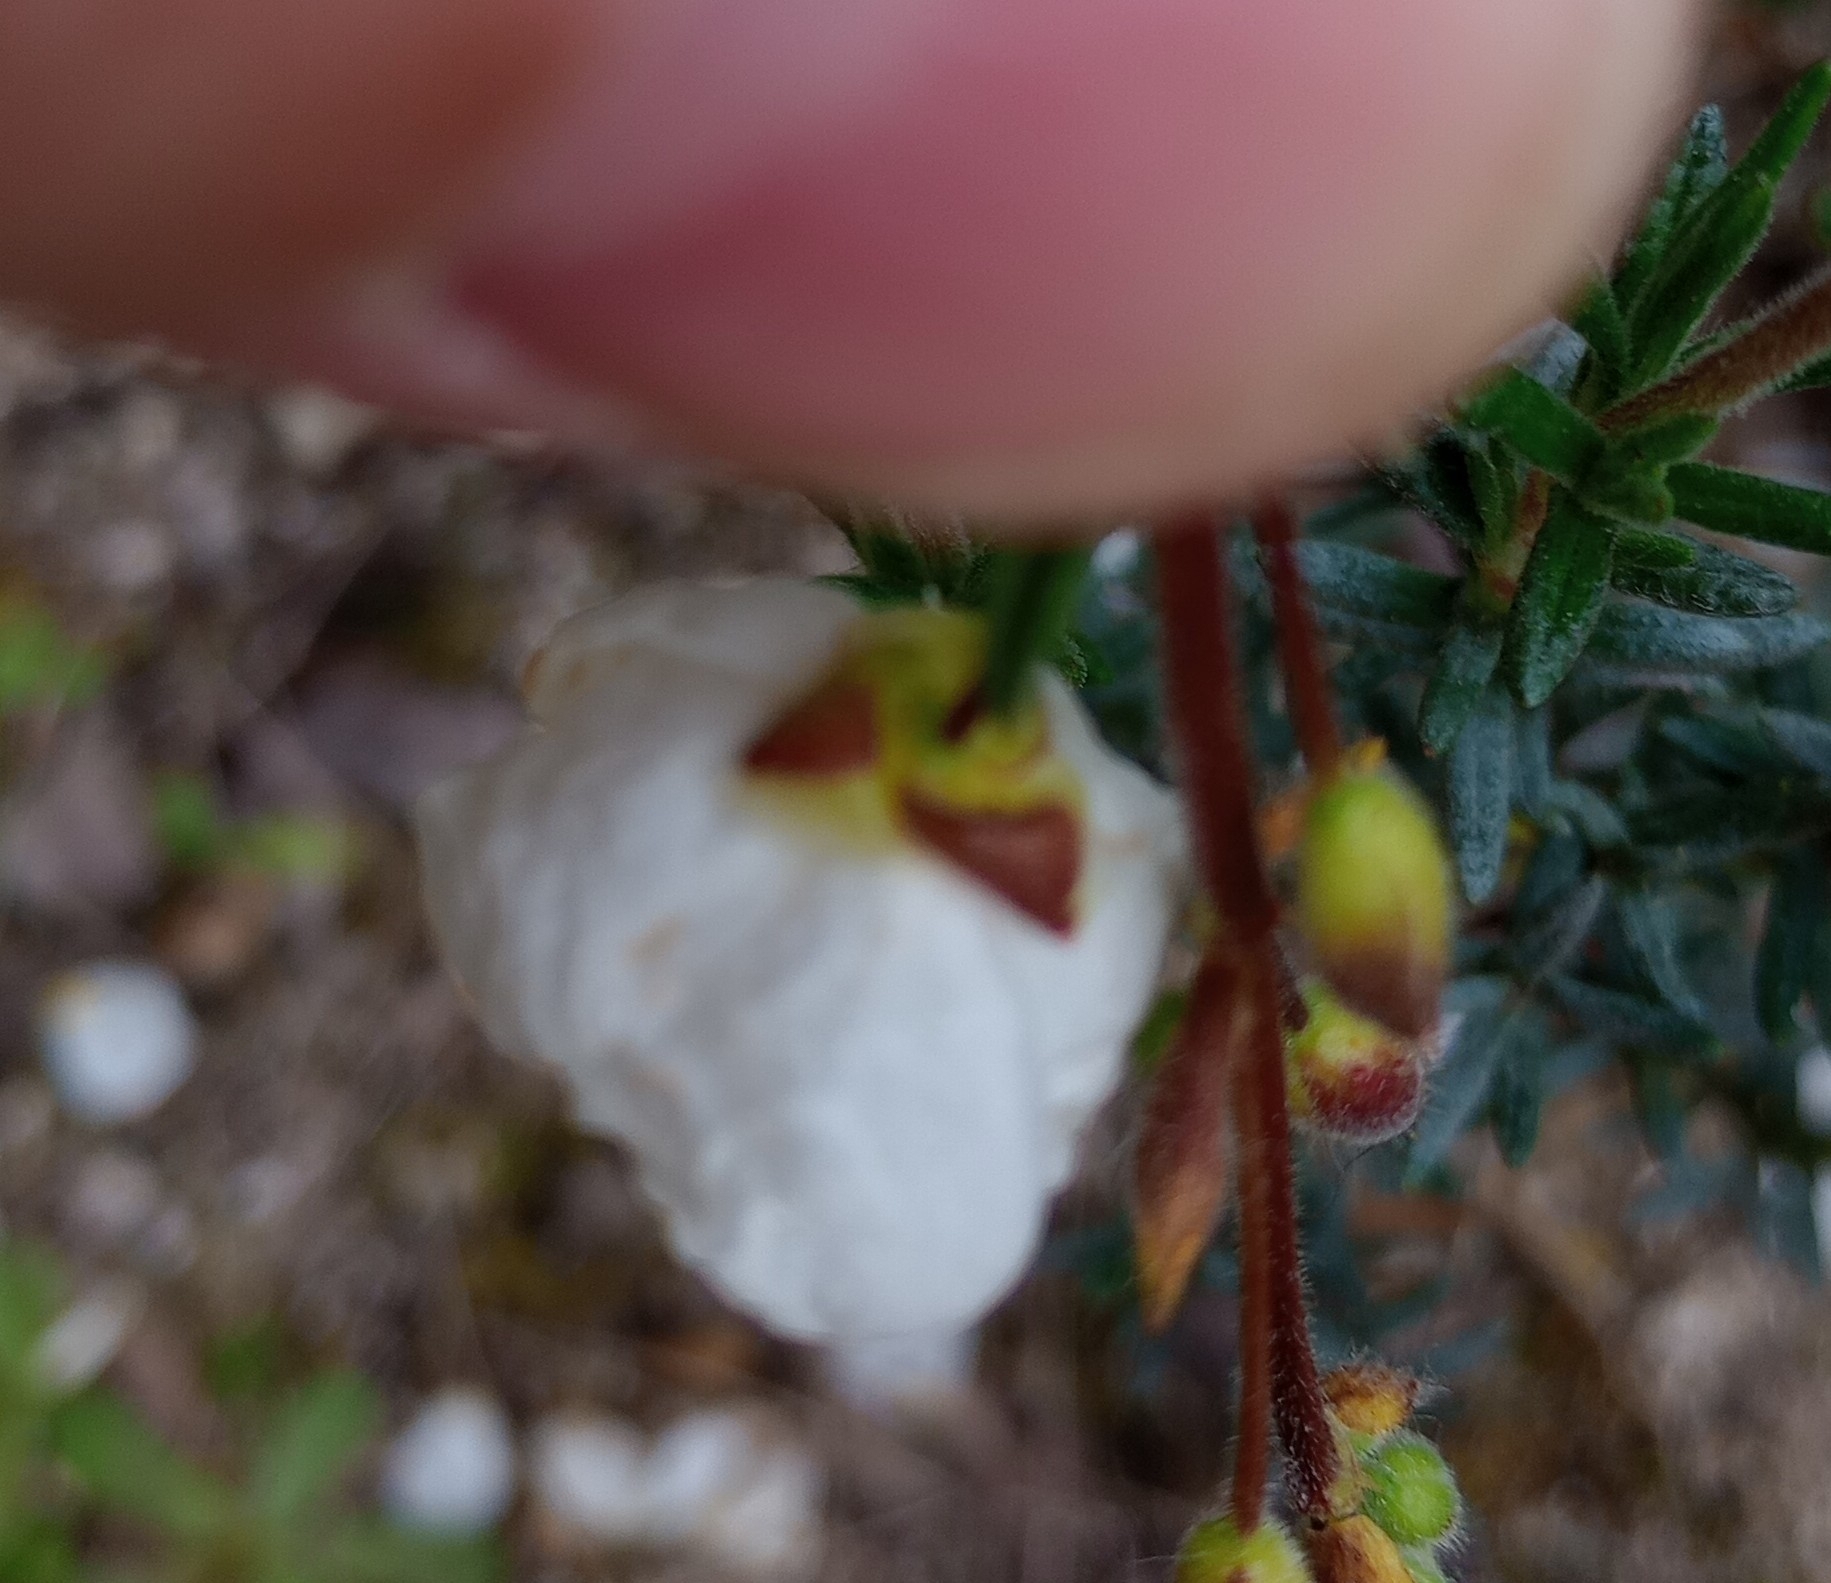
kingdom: Plantae
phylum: Tracheophyta
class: Magnoliopsida
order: Malvales
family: Cistaceae
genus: Halimium
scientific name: Halimium umbellatum
